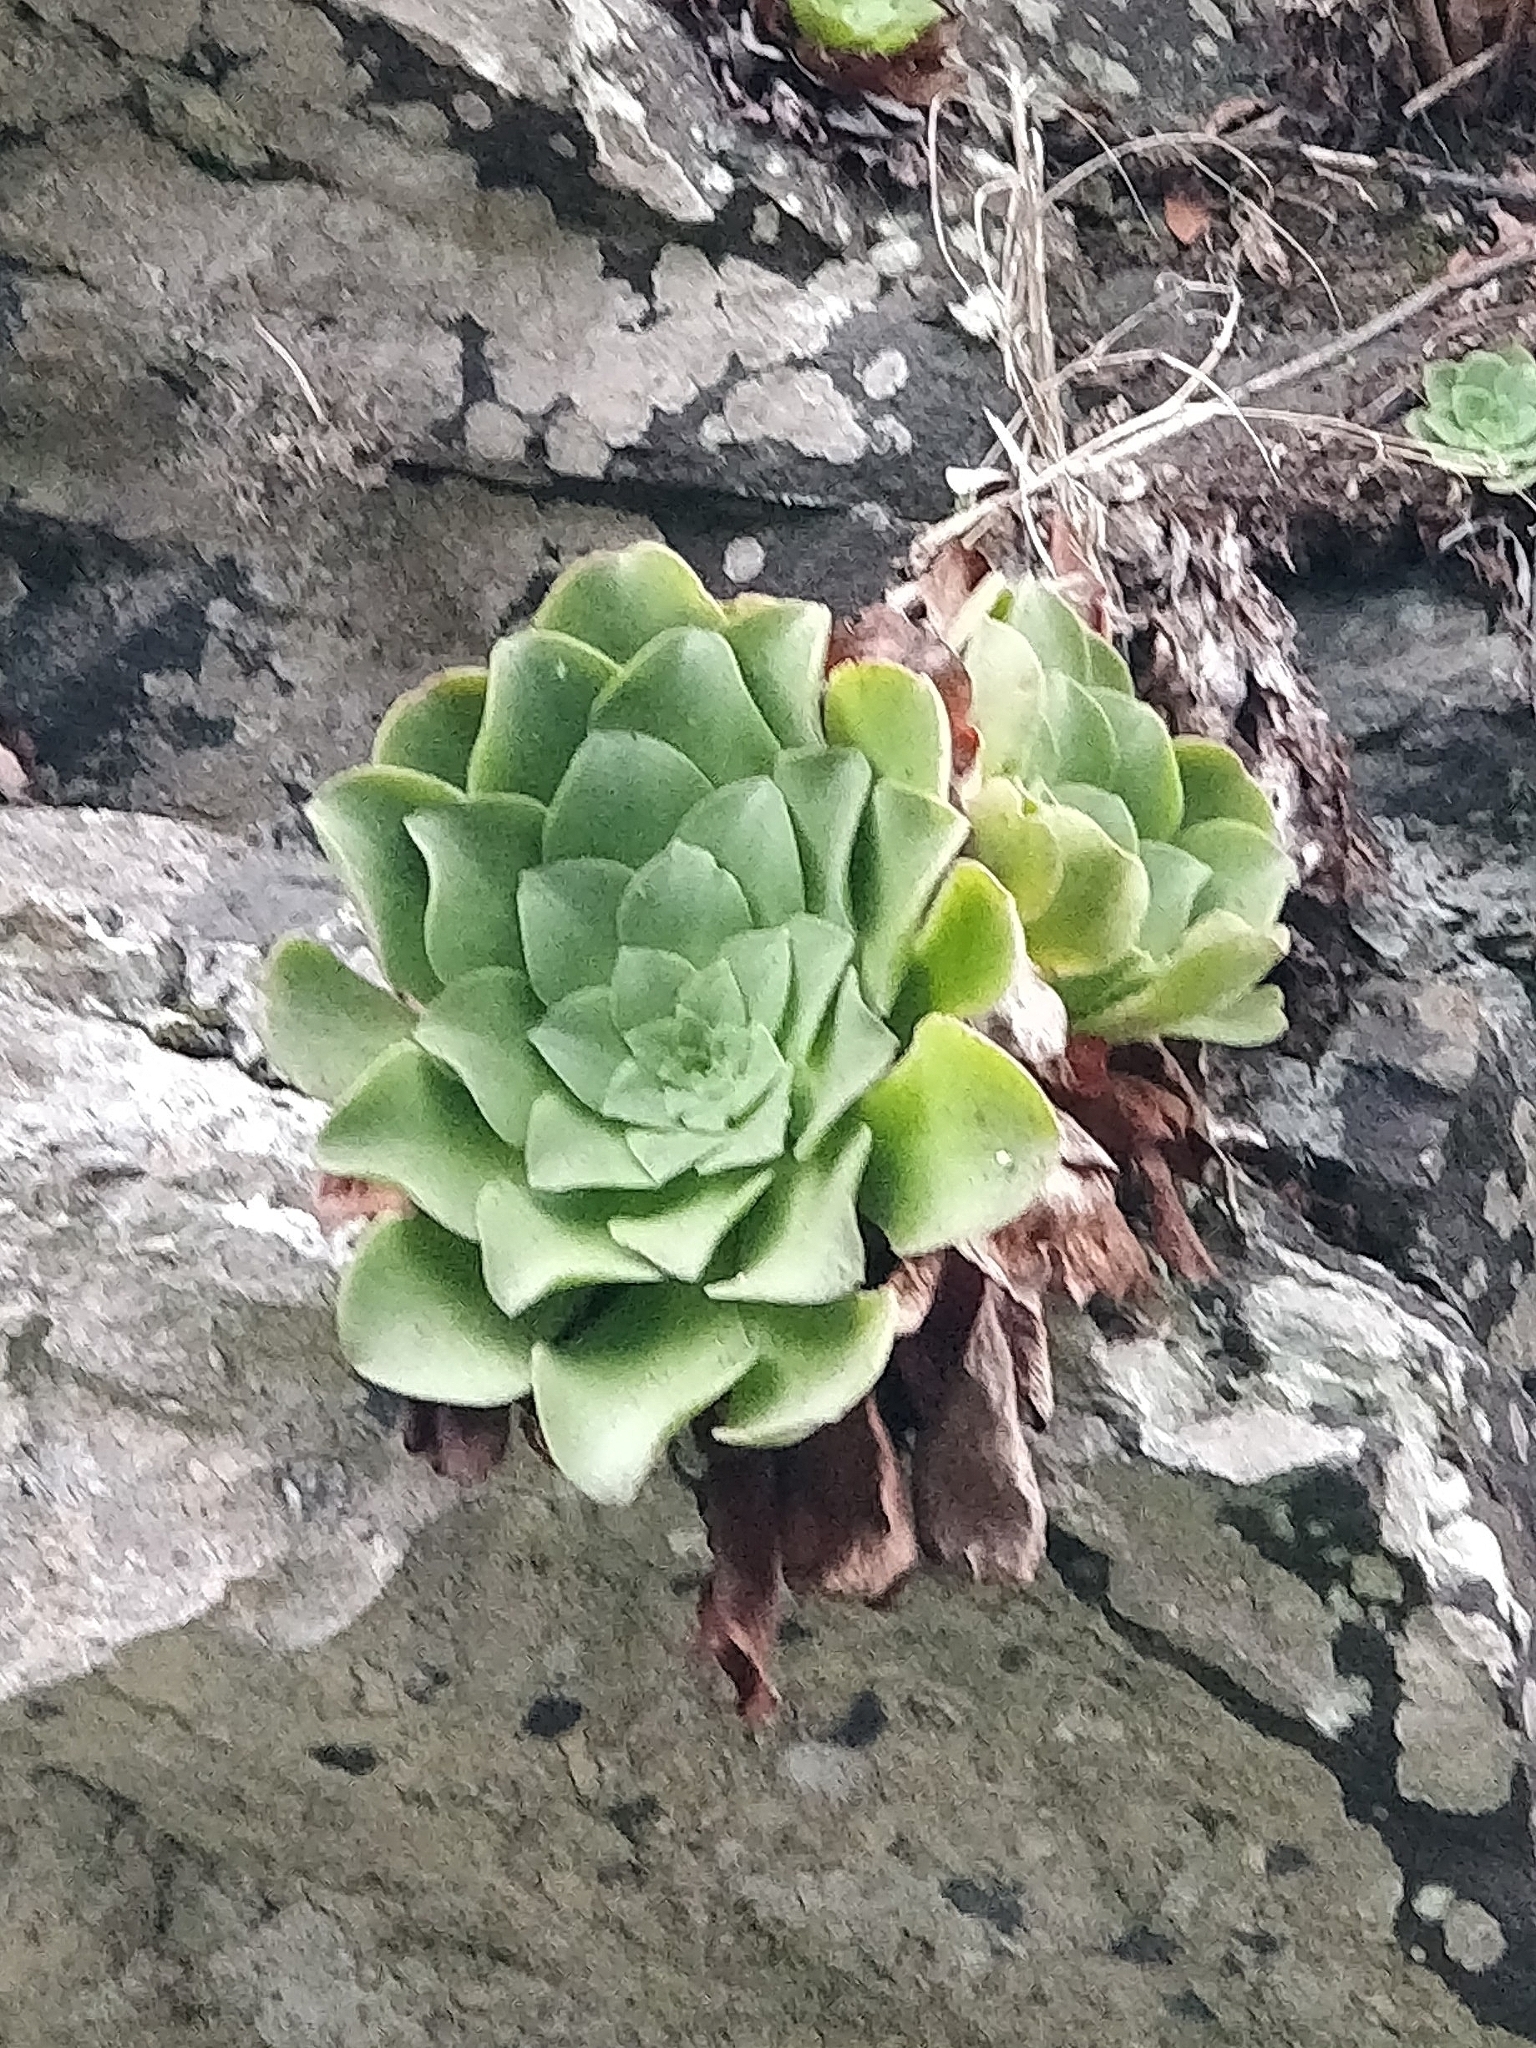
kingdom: Plantae
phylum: Tracheophyta
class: Magnoliopsida
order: Saxifragales
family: Crassulaceae
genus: Aeonium
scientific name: Aeonium glandulosum
